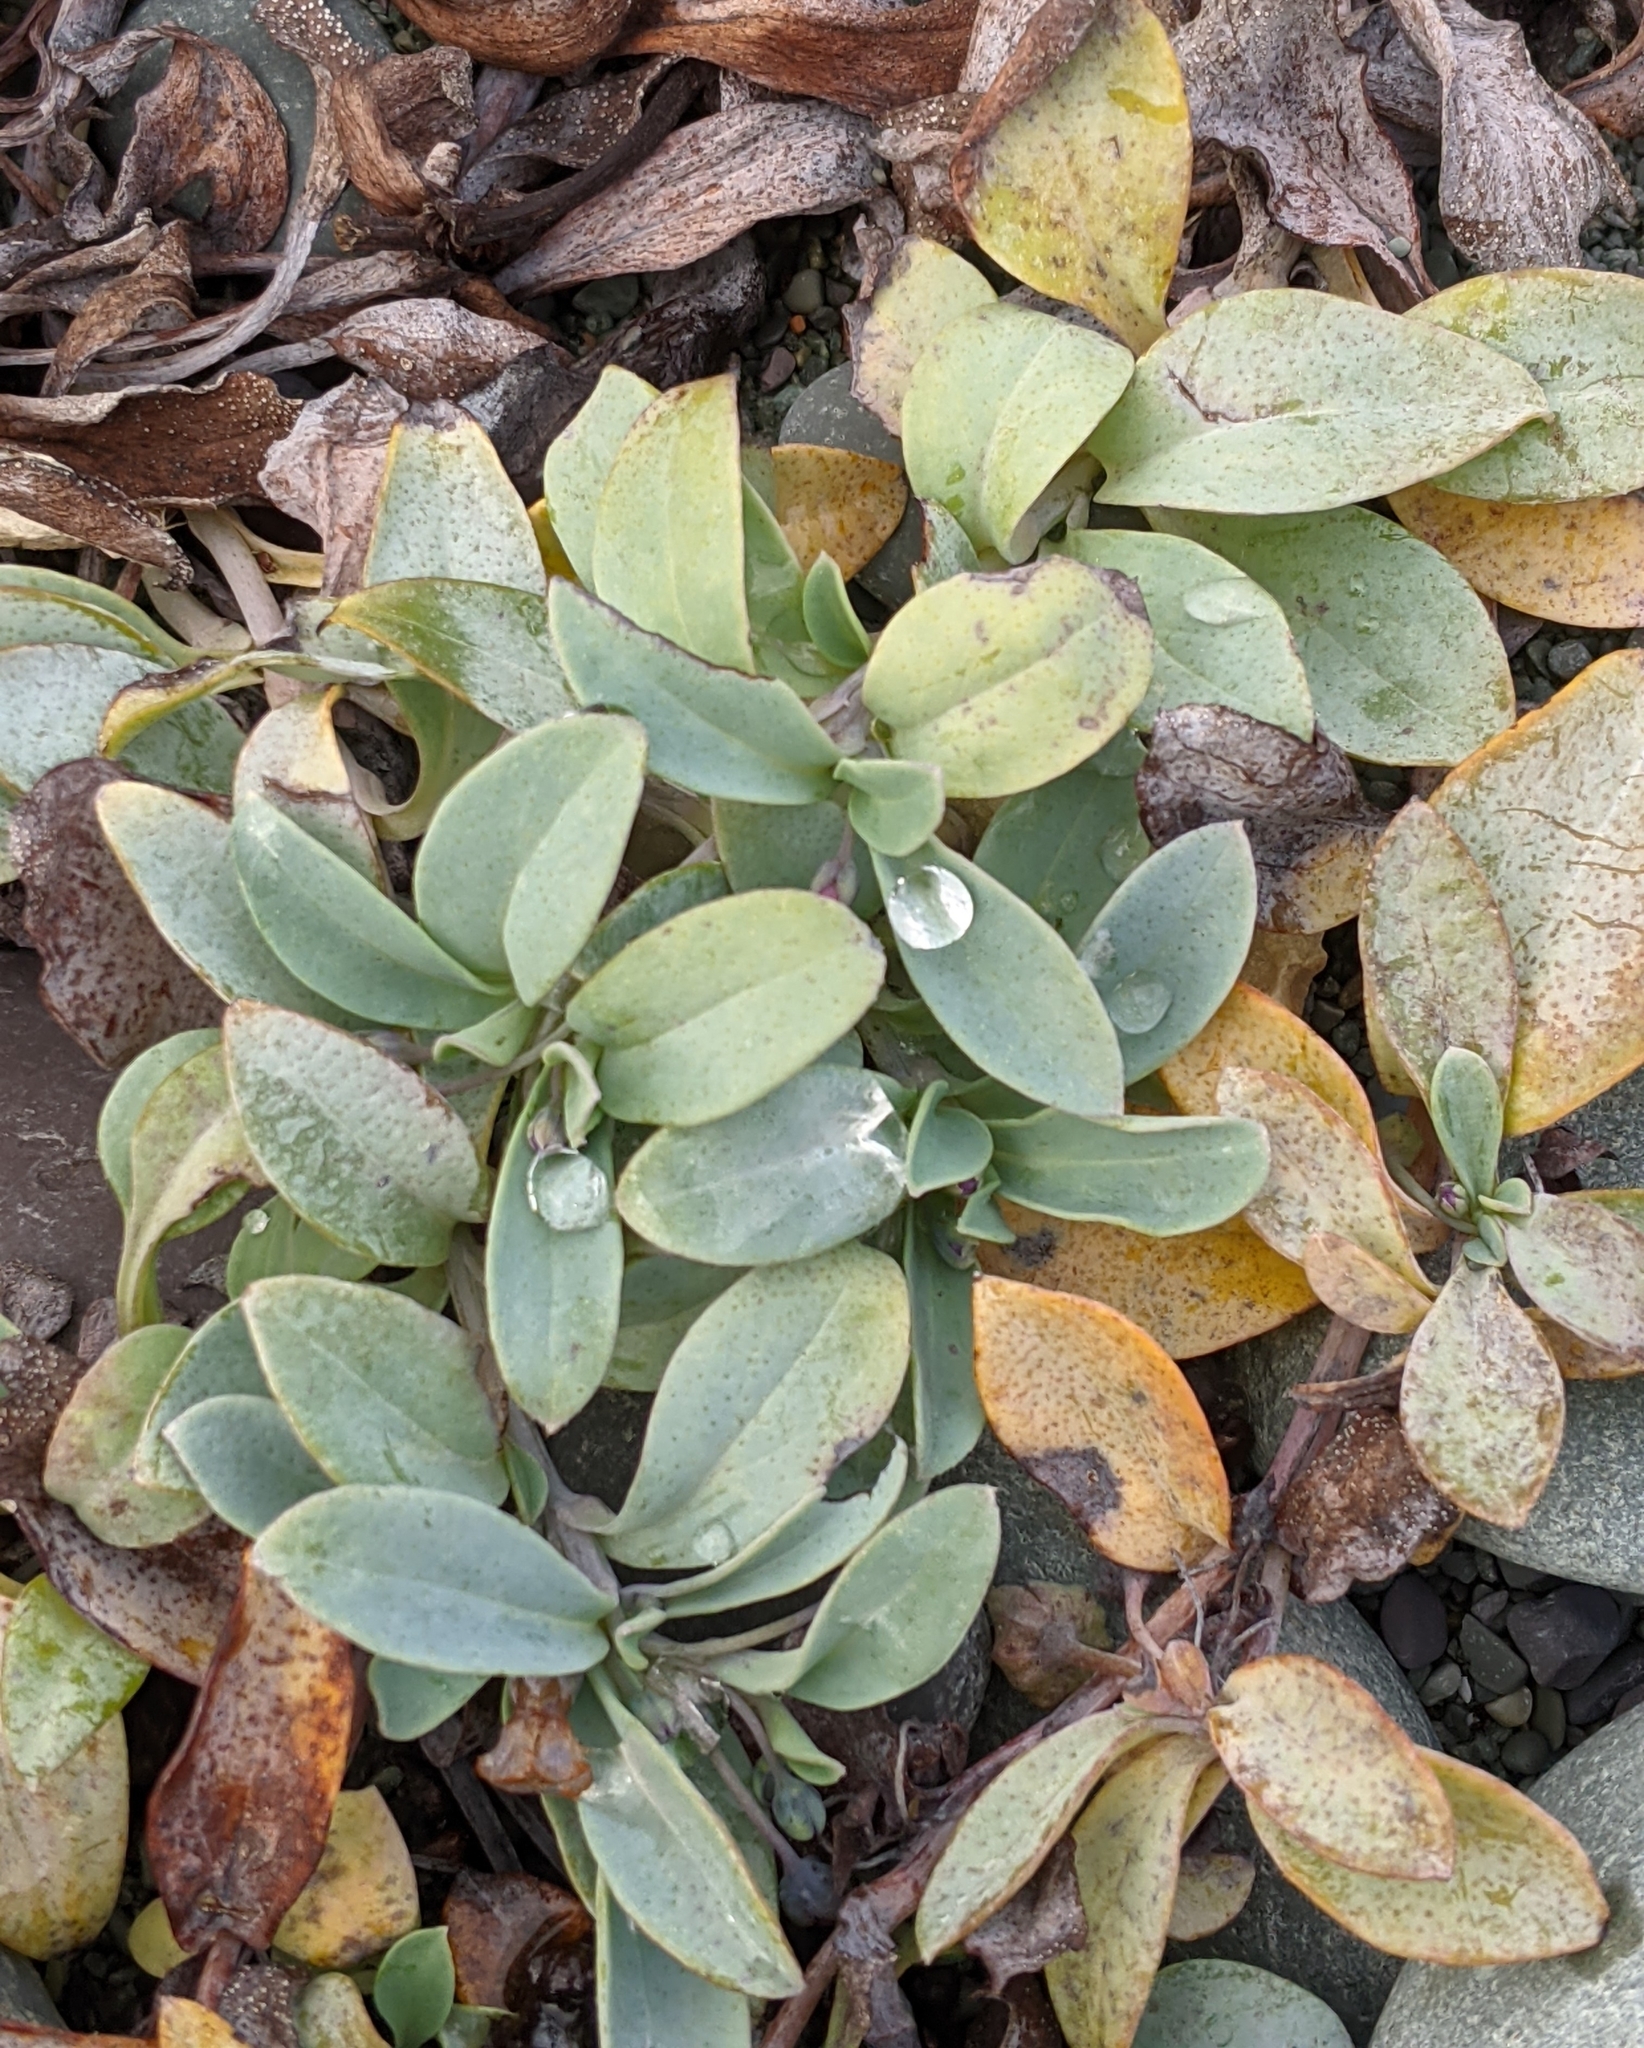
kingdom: Plantae
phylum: Tracheophyta
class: Magnoliopsida
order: Boraginales
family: Boraginaceae
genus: Mertensia
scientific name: Mertensia maritima
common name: Oysterplant
